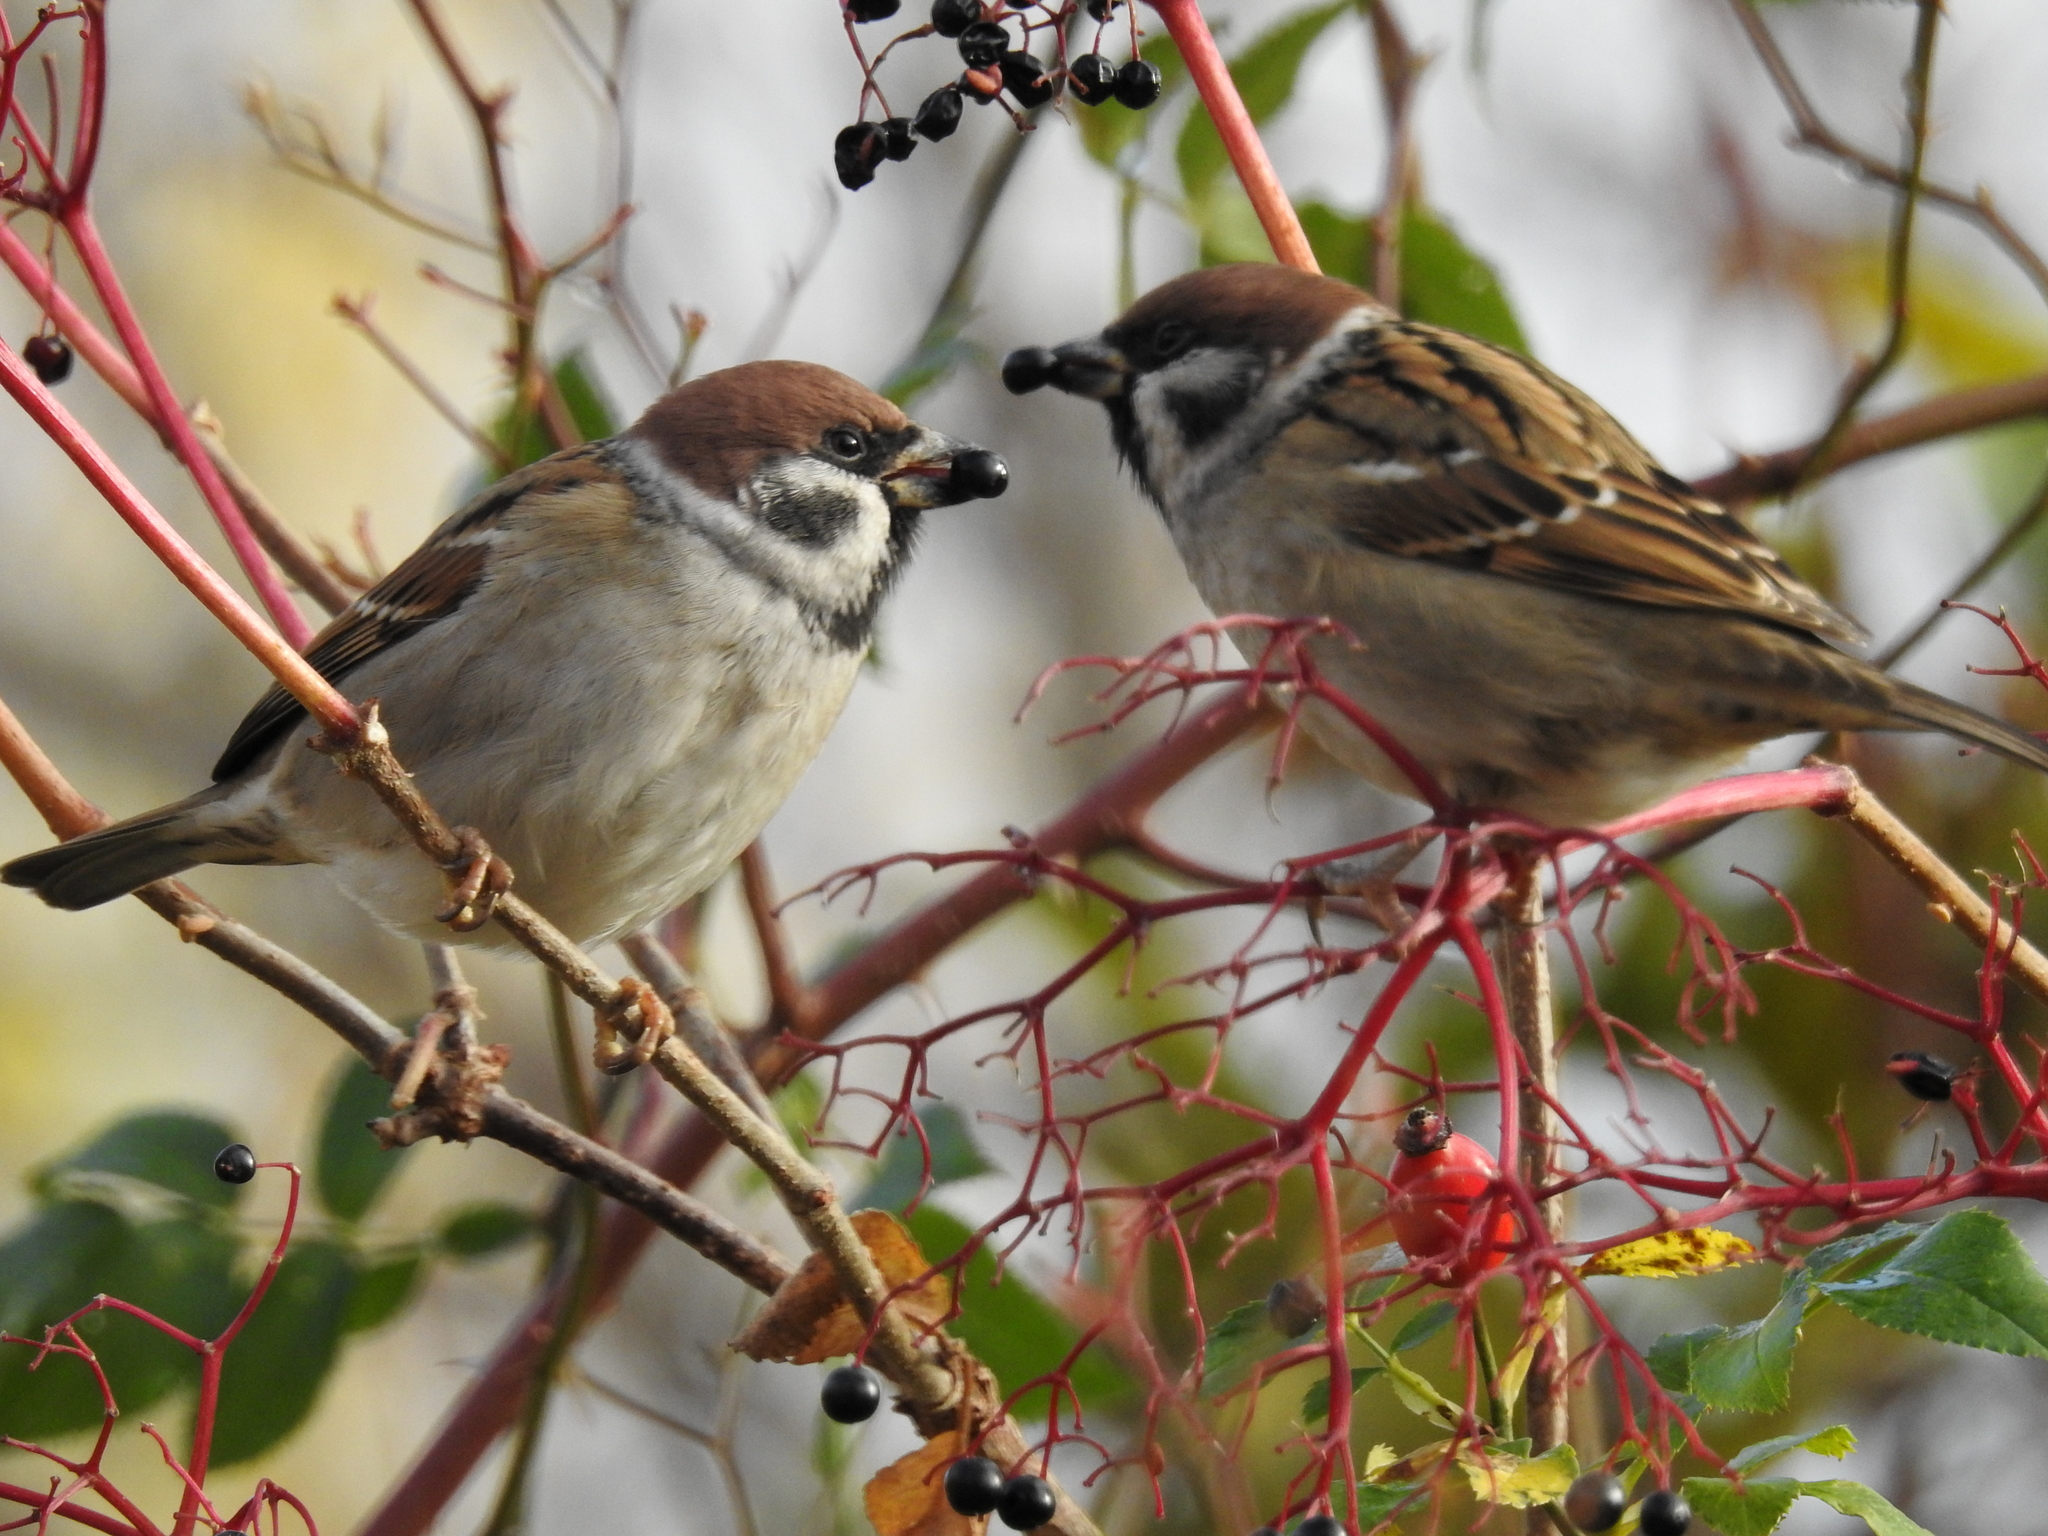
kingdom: Animalia
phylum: Chordata
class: Aves
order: Passeriformes
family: Passeridae
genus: Passer
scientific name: Passer montanus
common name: Eurasian tree sparrow
